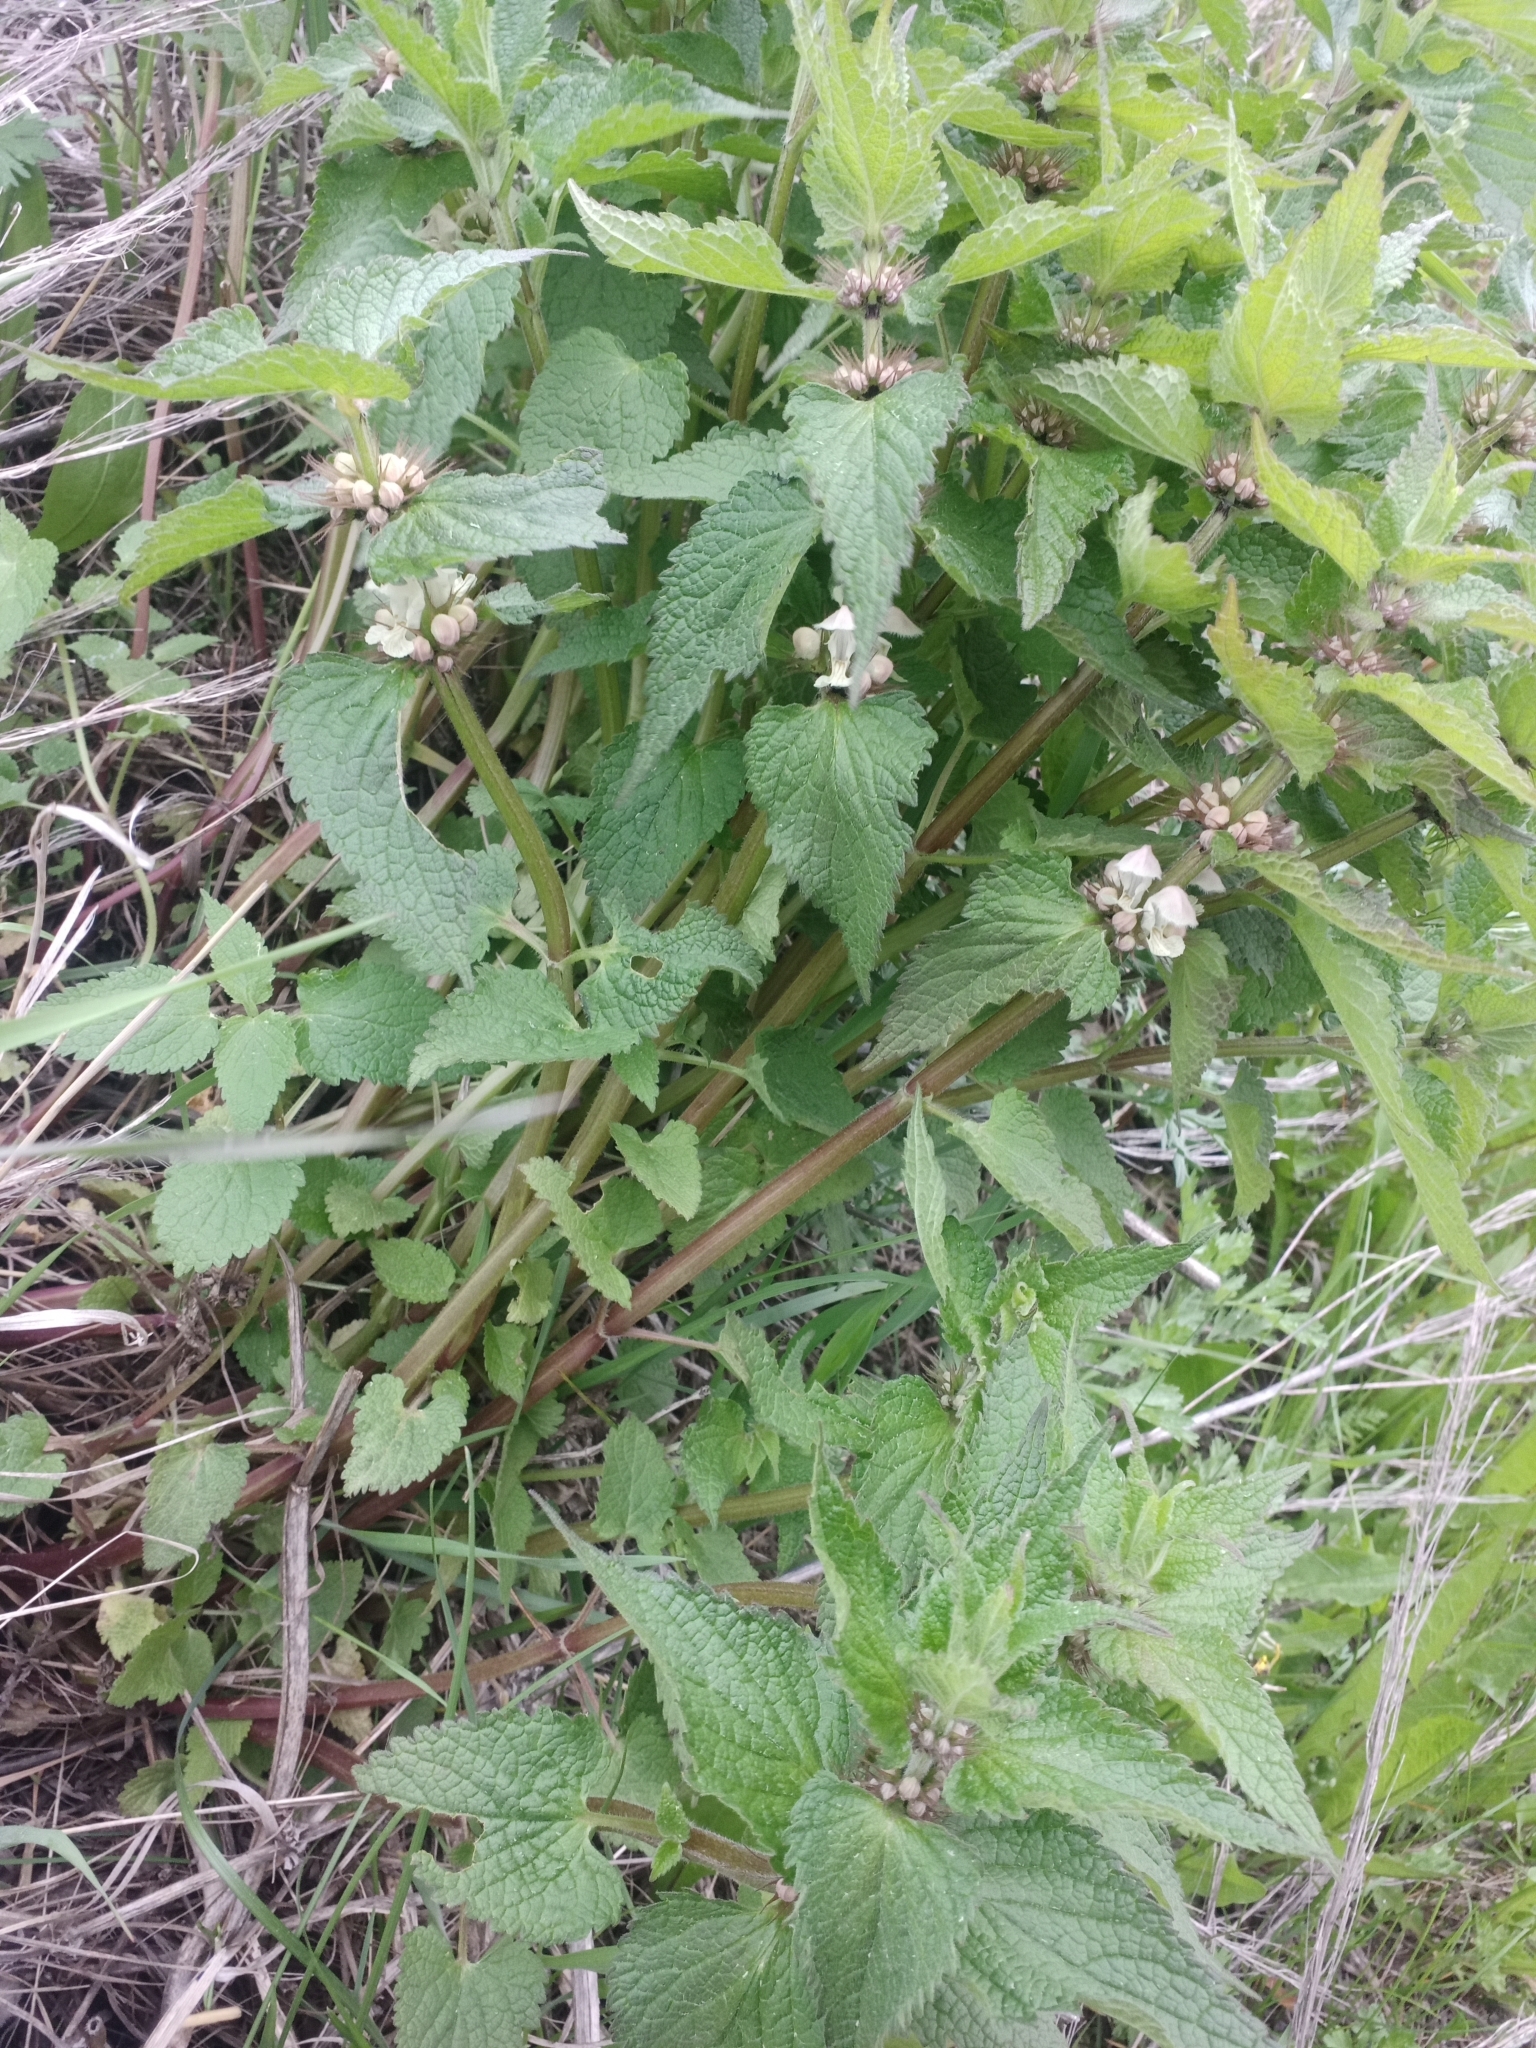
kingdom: Plantae
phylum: Tracheophyta
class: Magnoliopsida
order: Lamiales
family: Lamiaceae
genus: Lamium
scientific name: Lamium album
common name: White dead-nettle
